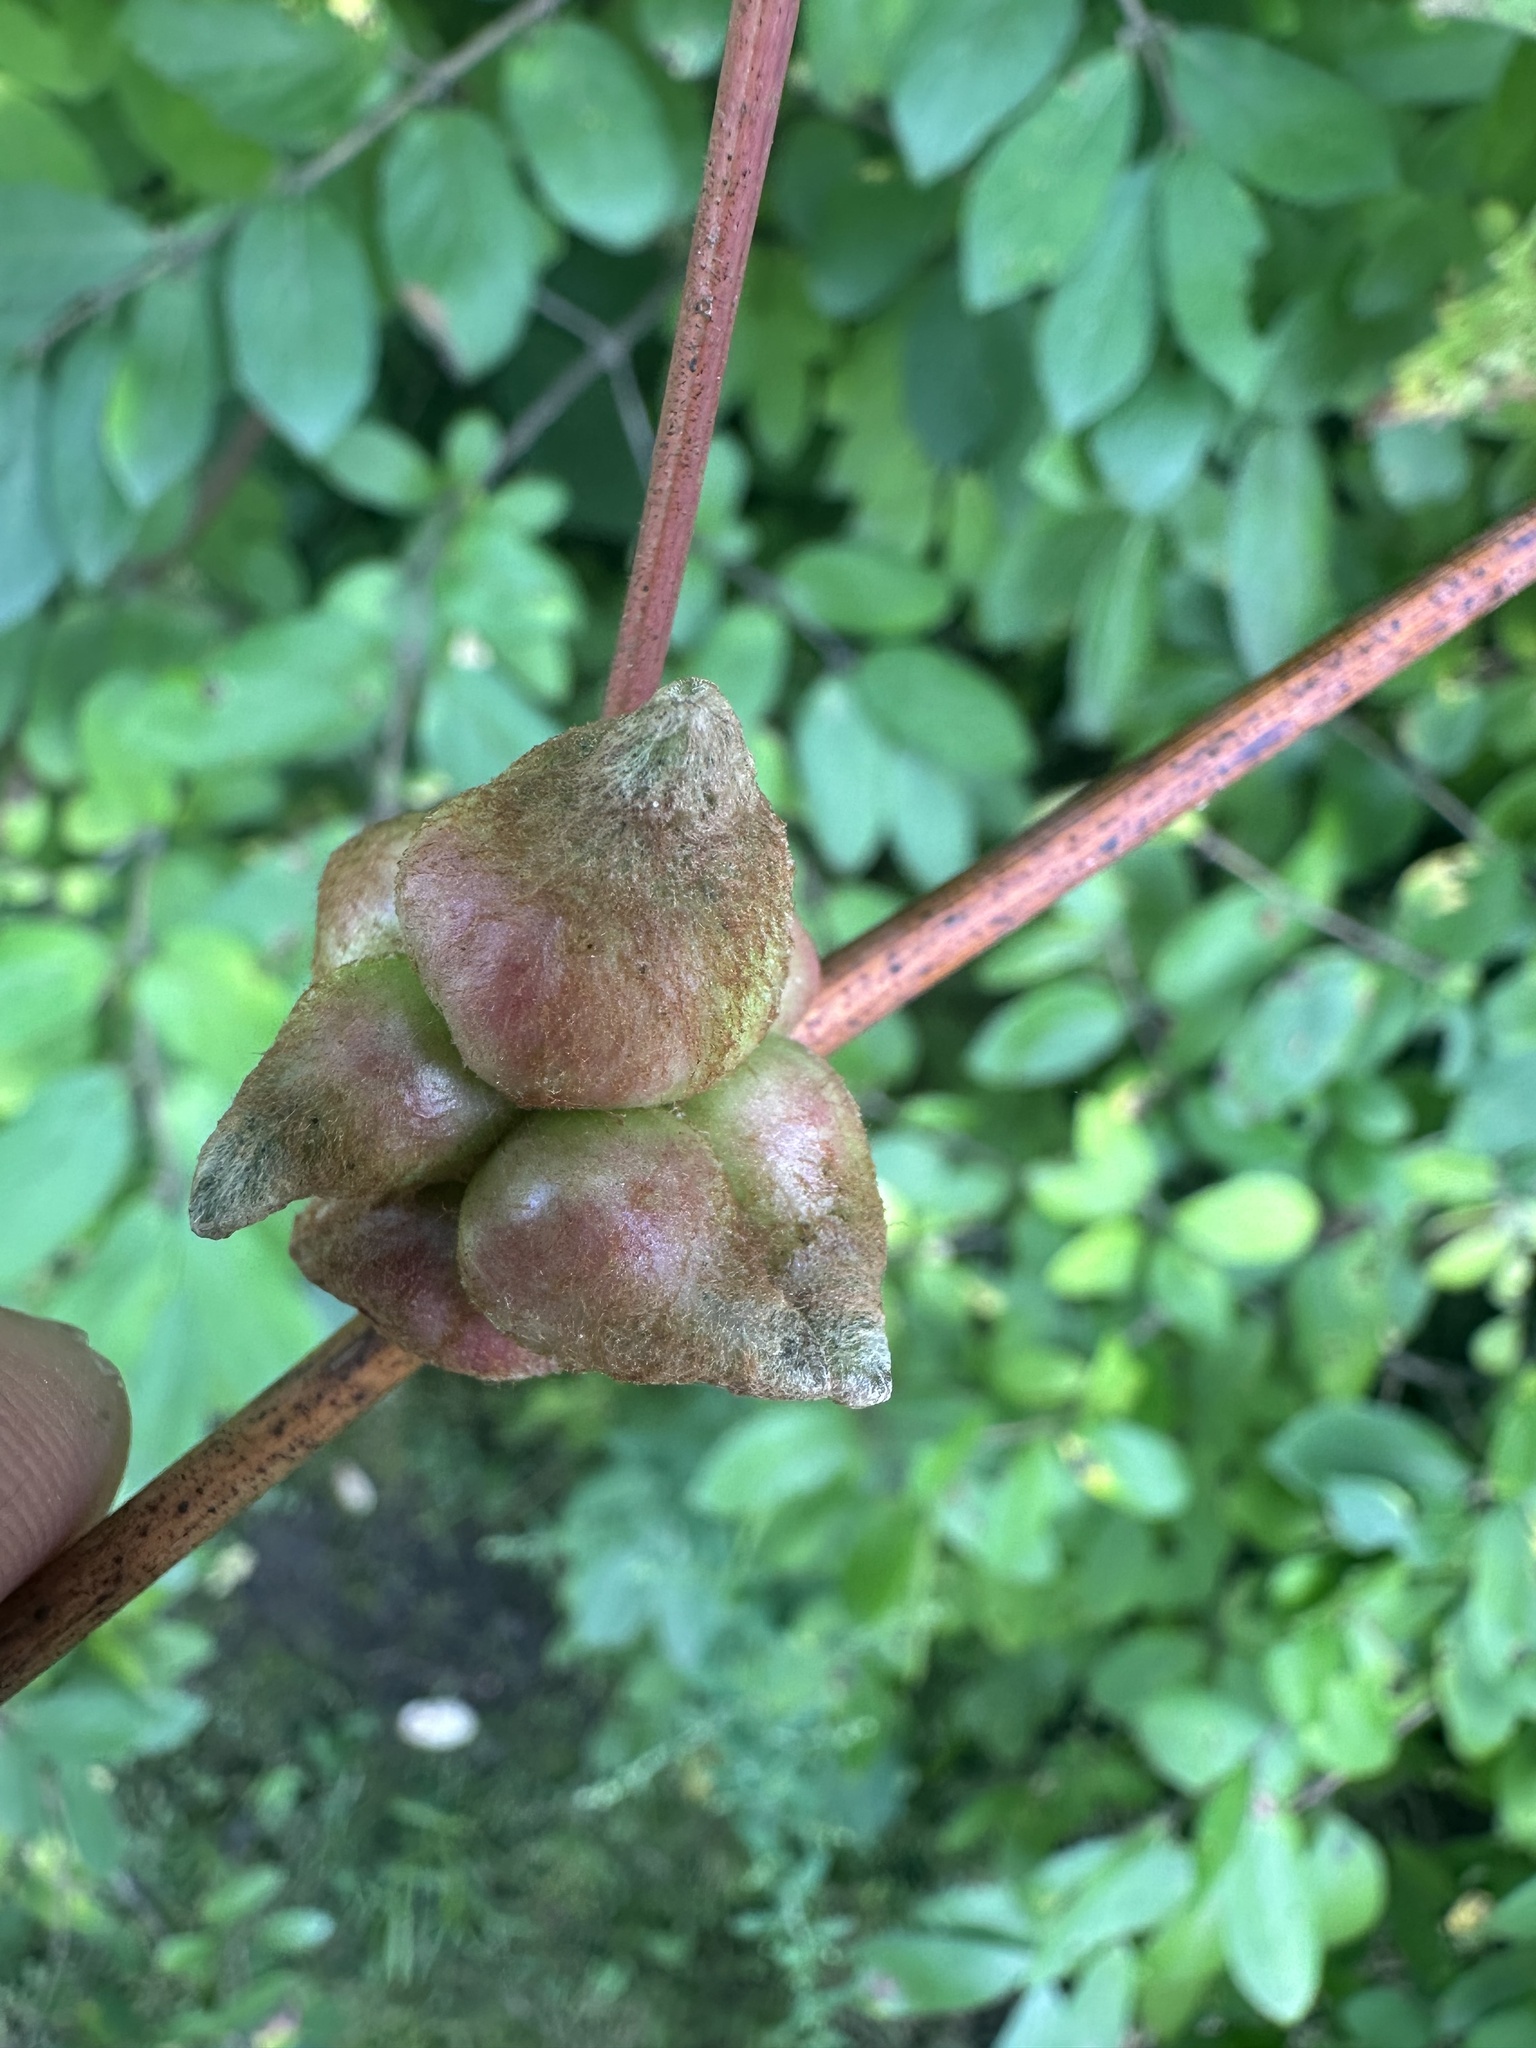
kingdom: Animalia
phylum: Arthropoda
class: Insecta
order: Diptera
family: Cecidomyiidae
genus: Ampelomyia
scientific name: Ampelomyia vitiscoryloides
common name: Grape filbert gall
